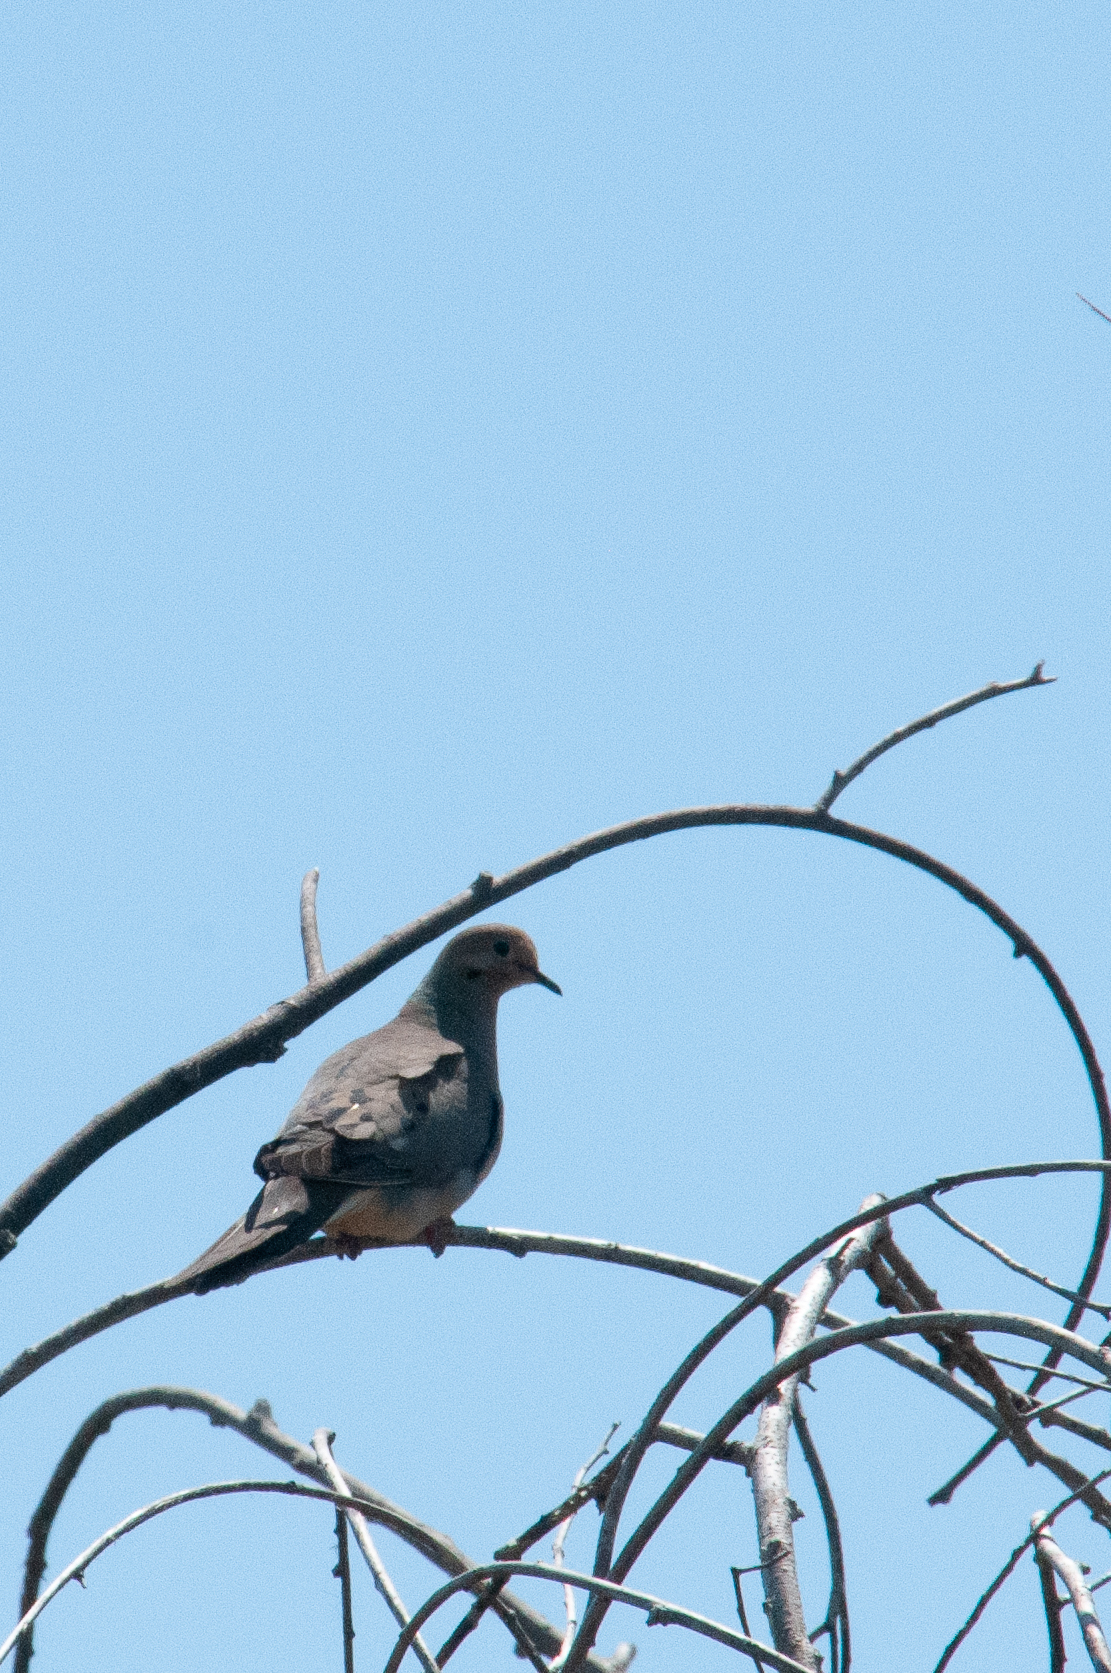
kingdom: Animalia
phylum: Chordata
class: Aves
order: Columbiformes
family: Columbidae
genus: Zenaida
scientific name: Zenaida macroura
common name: Mourning dove
